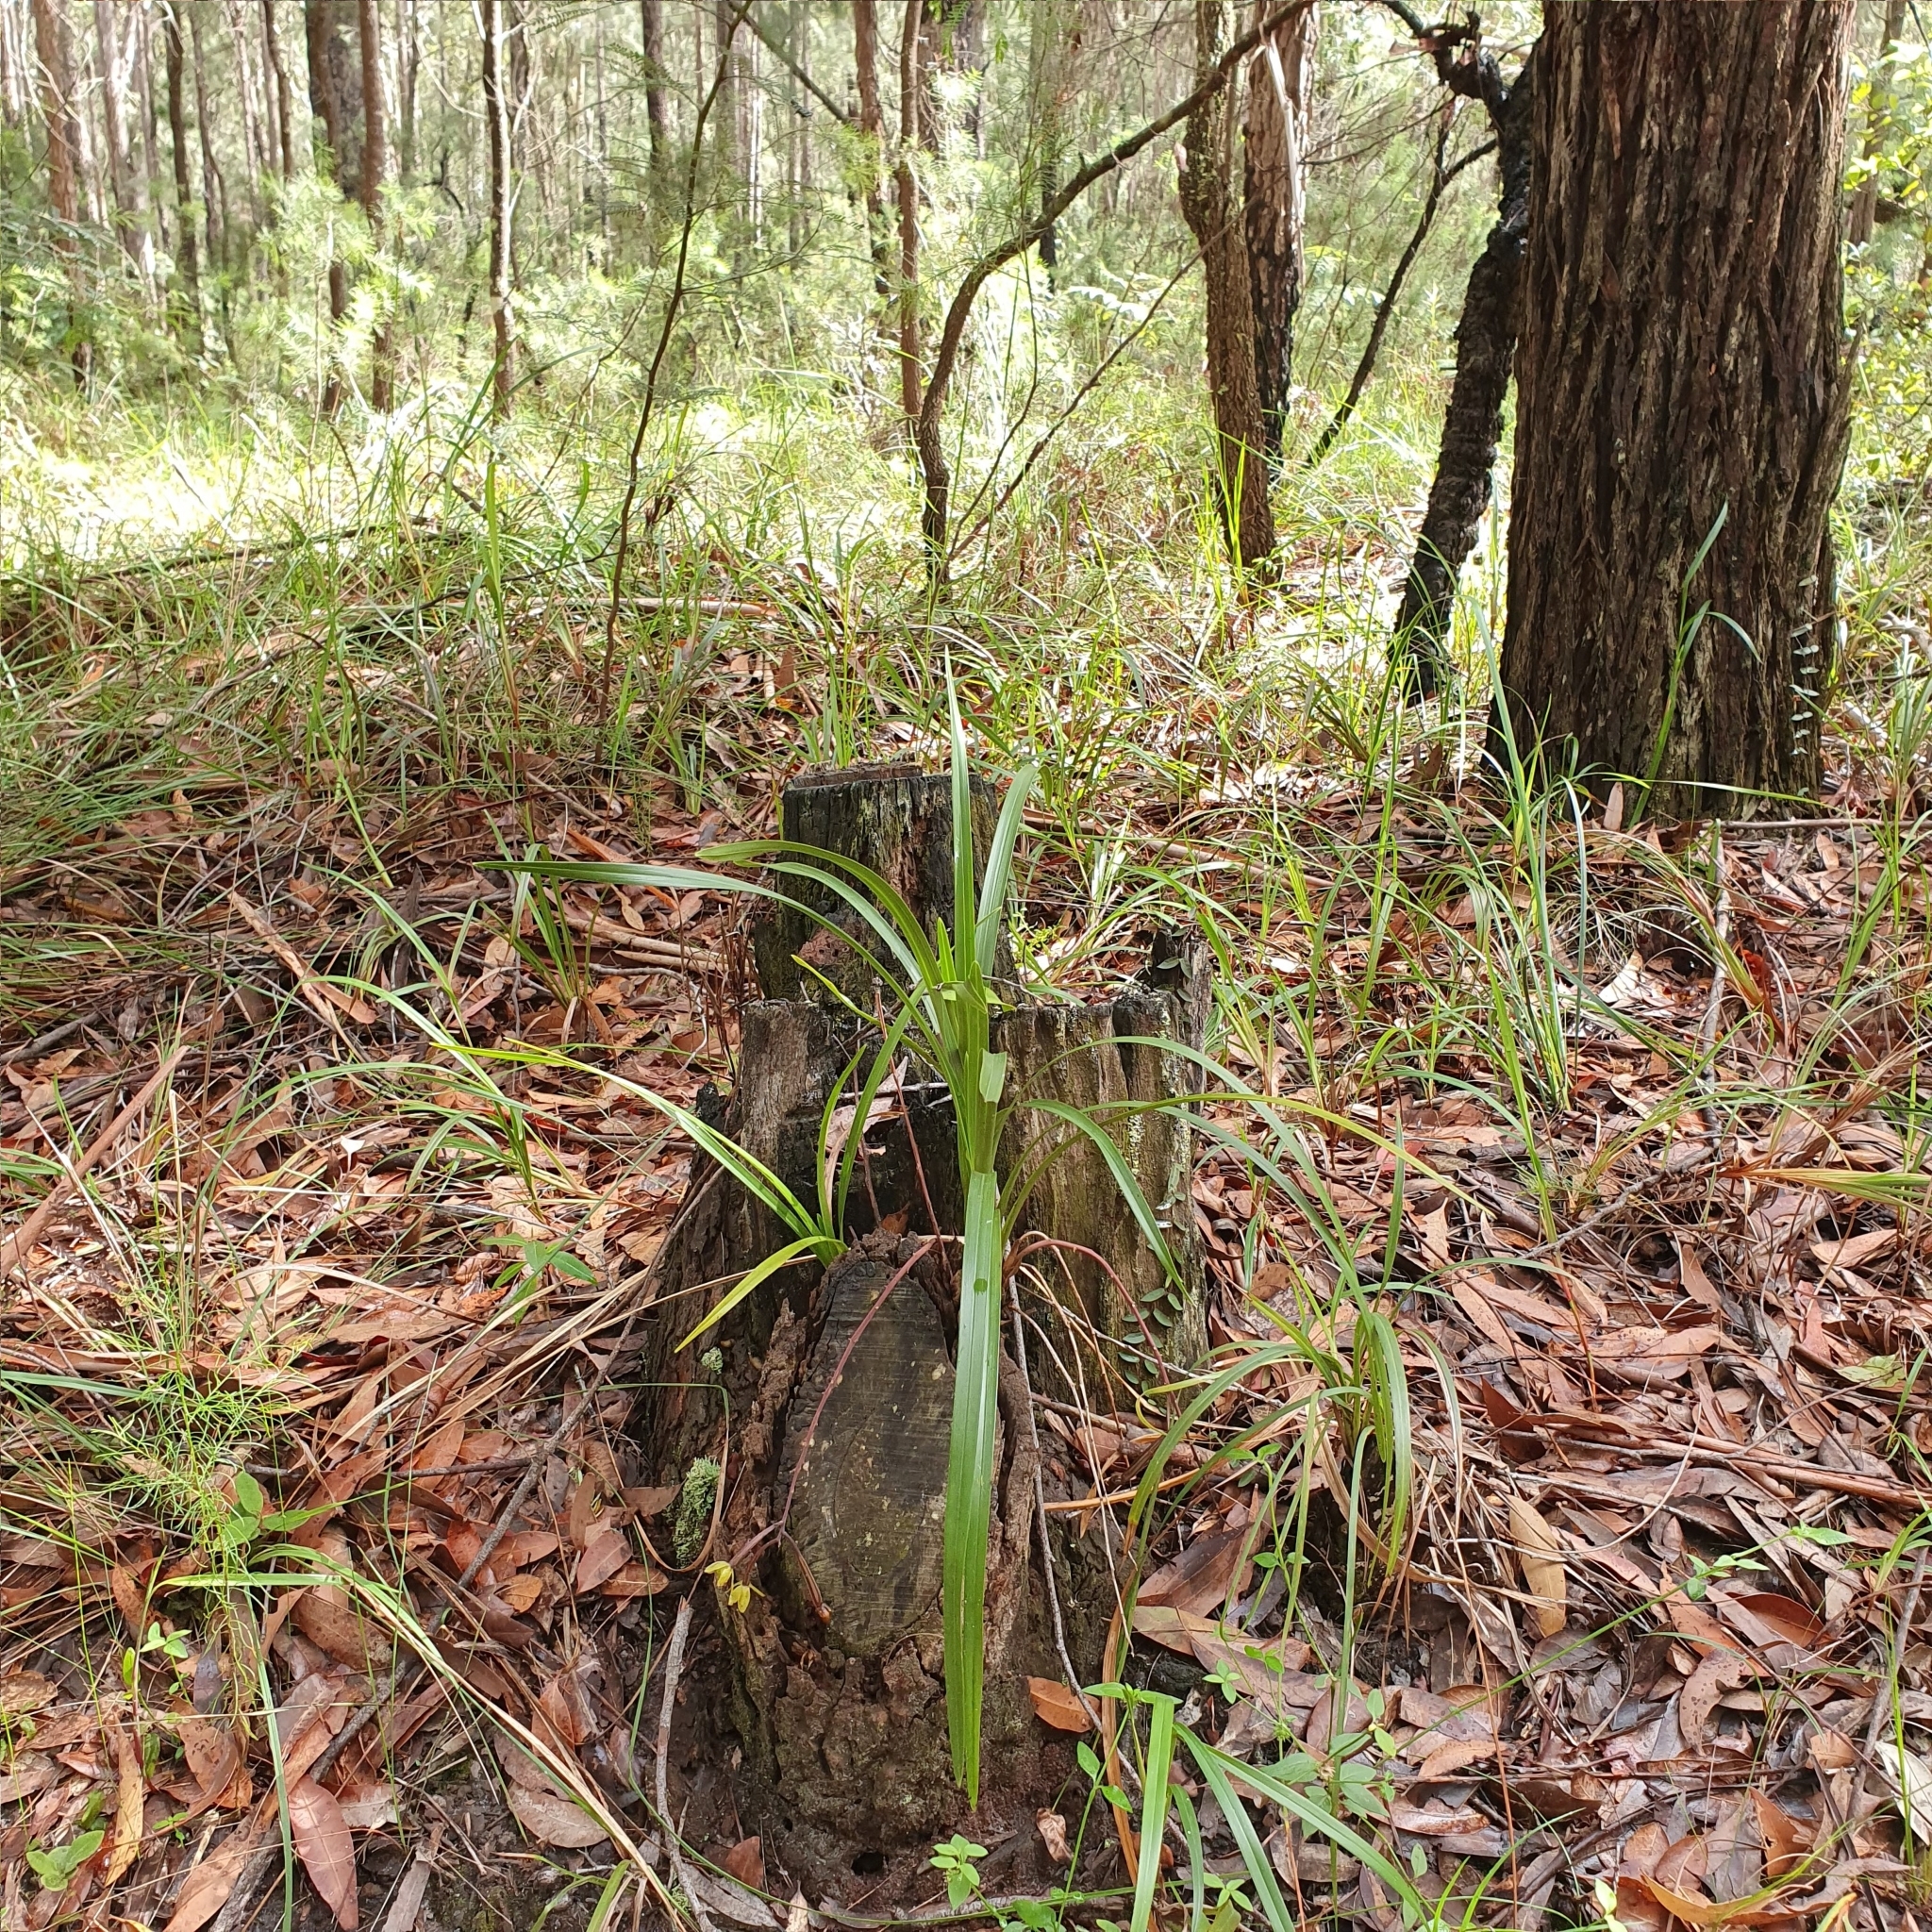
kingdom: Plantae
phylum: Tracheophyta
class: Liliopsida
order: Asparagales
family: Orchidaceae
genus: Cymbidium
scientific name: Cymbidium suave
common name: Snake orchid
